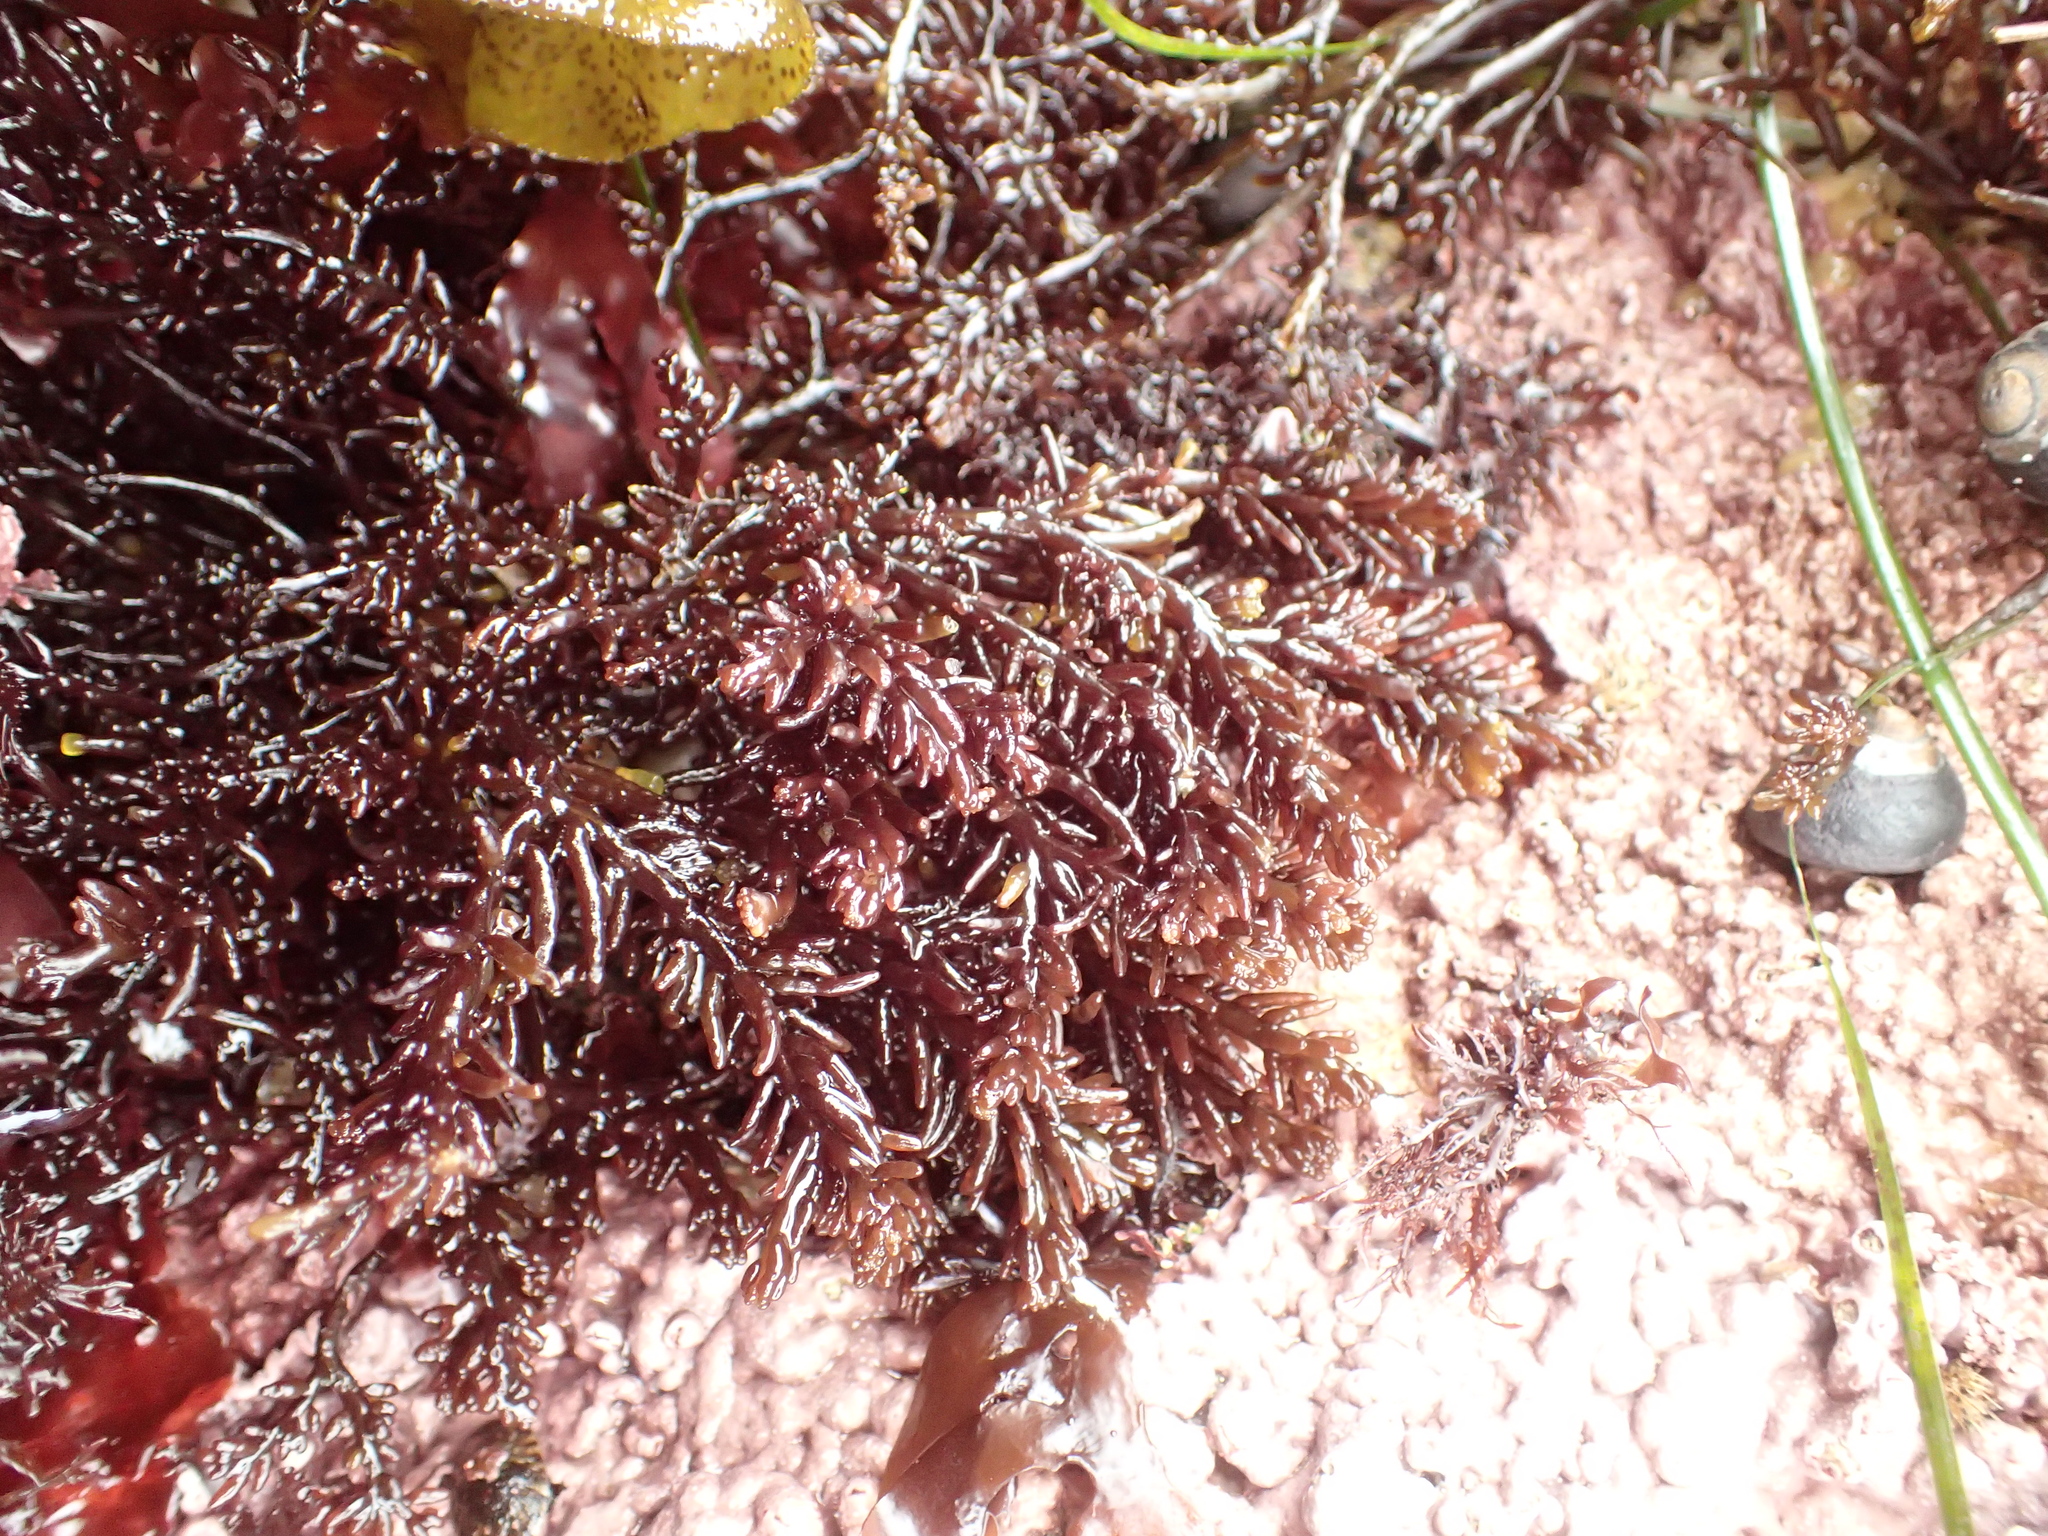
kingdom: Plantae
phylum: Rhodophyta
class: Florideophyceae
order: Rhodymeniales
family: Champiaceae
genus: Neogastroclonium
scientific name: Neogastroclonium subarticulatum
